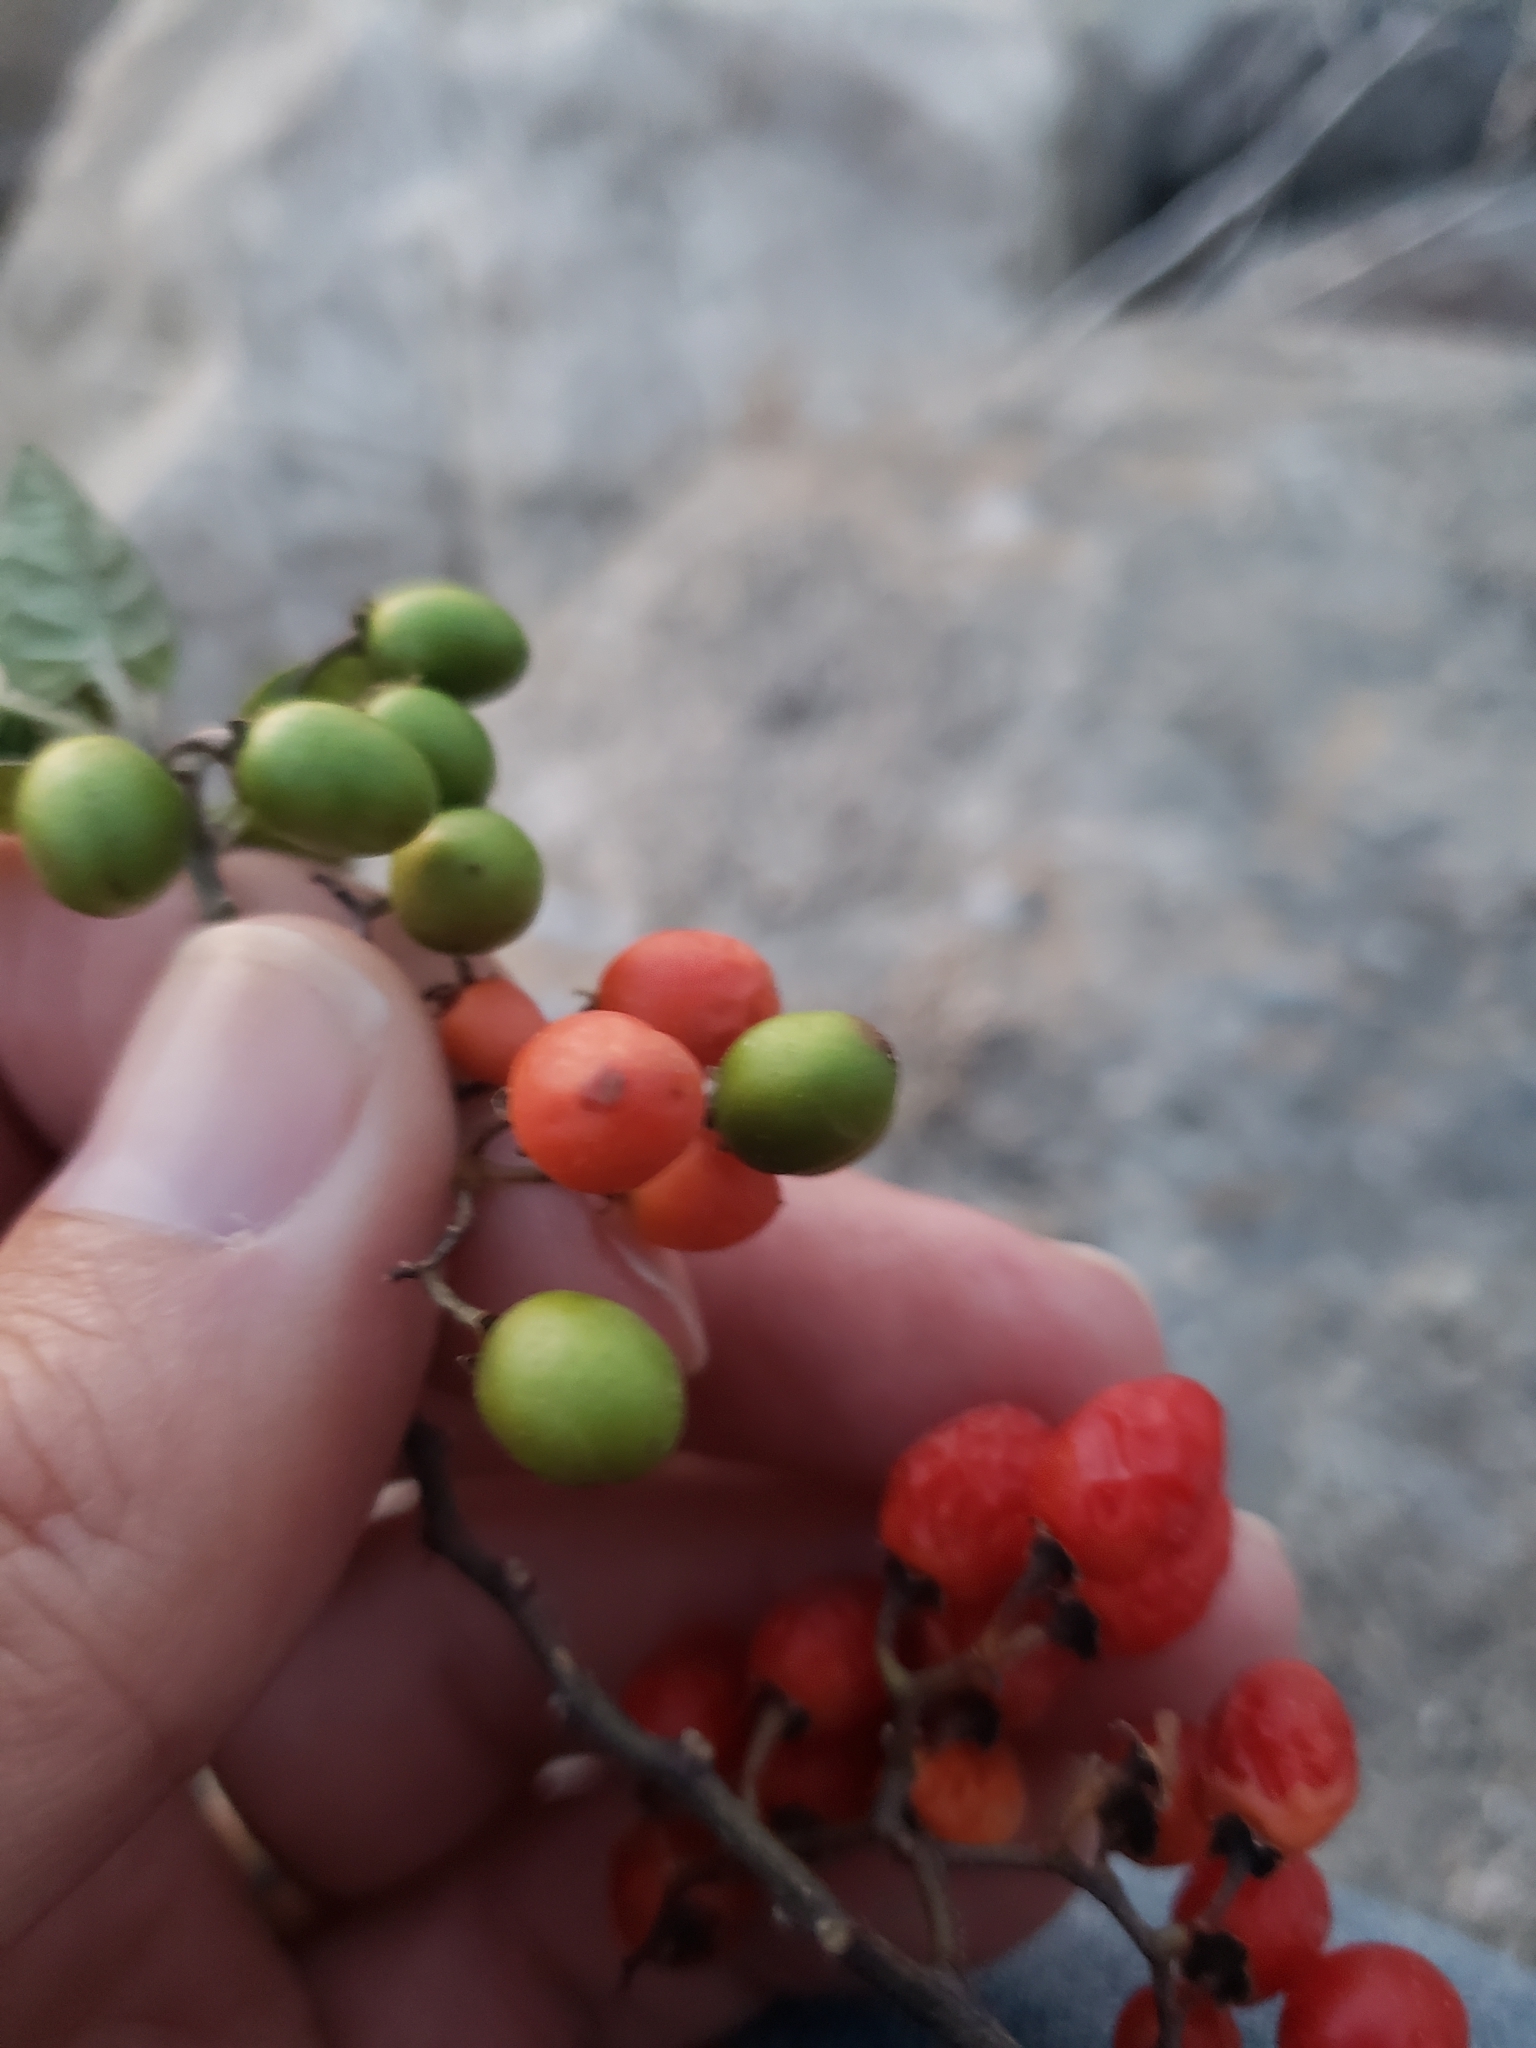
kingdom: Animalia
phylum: Arthropoda
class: Insecta
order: Hemiptera
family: Lygaeidae
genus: Lygaeus
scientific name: Lygaeus kalmii
